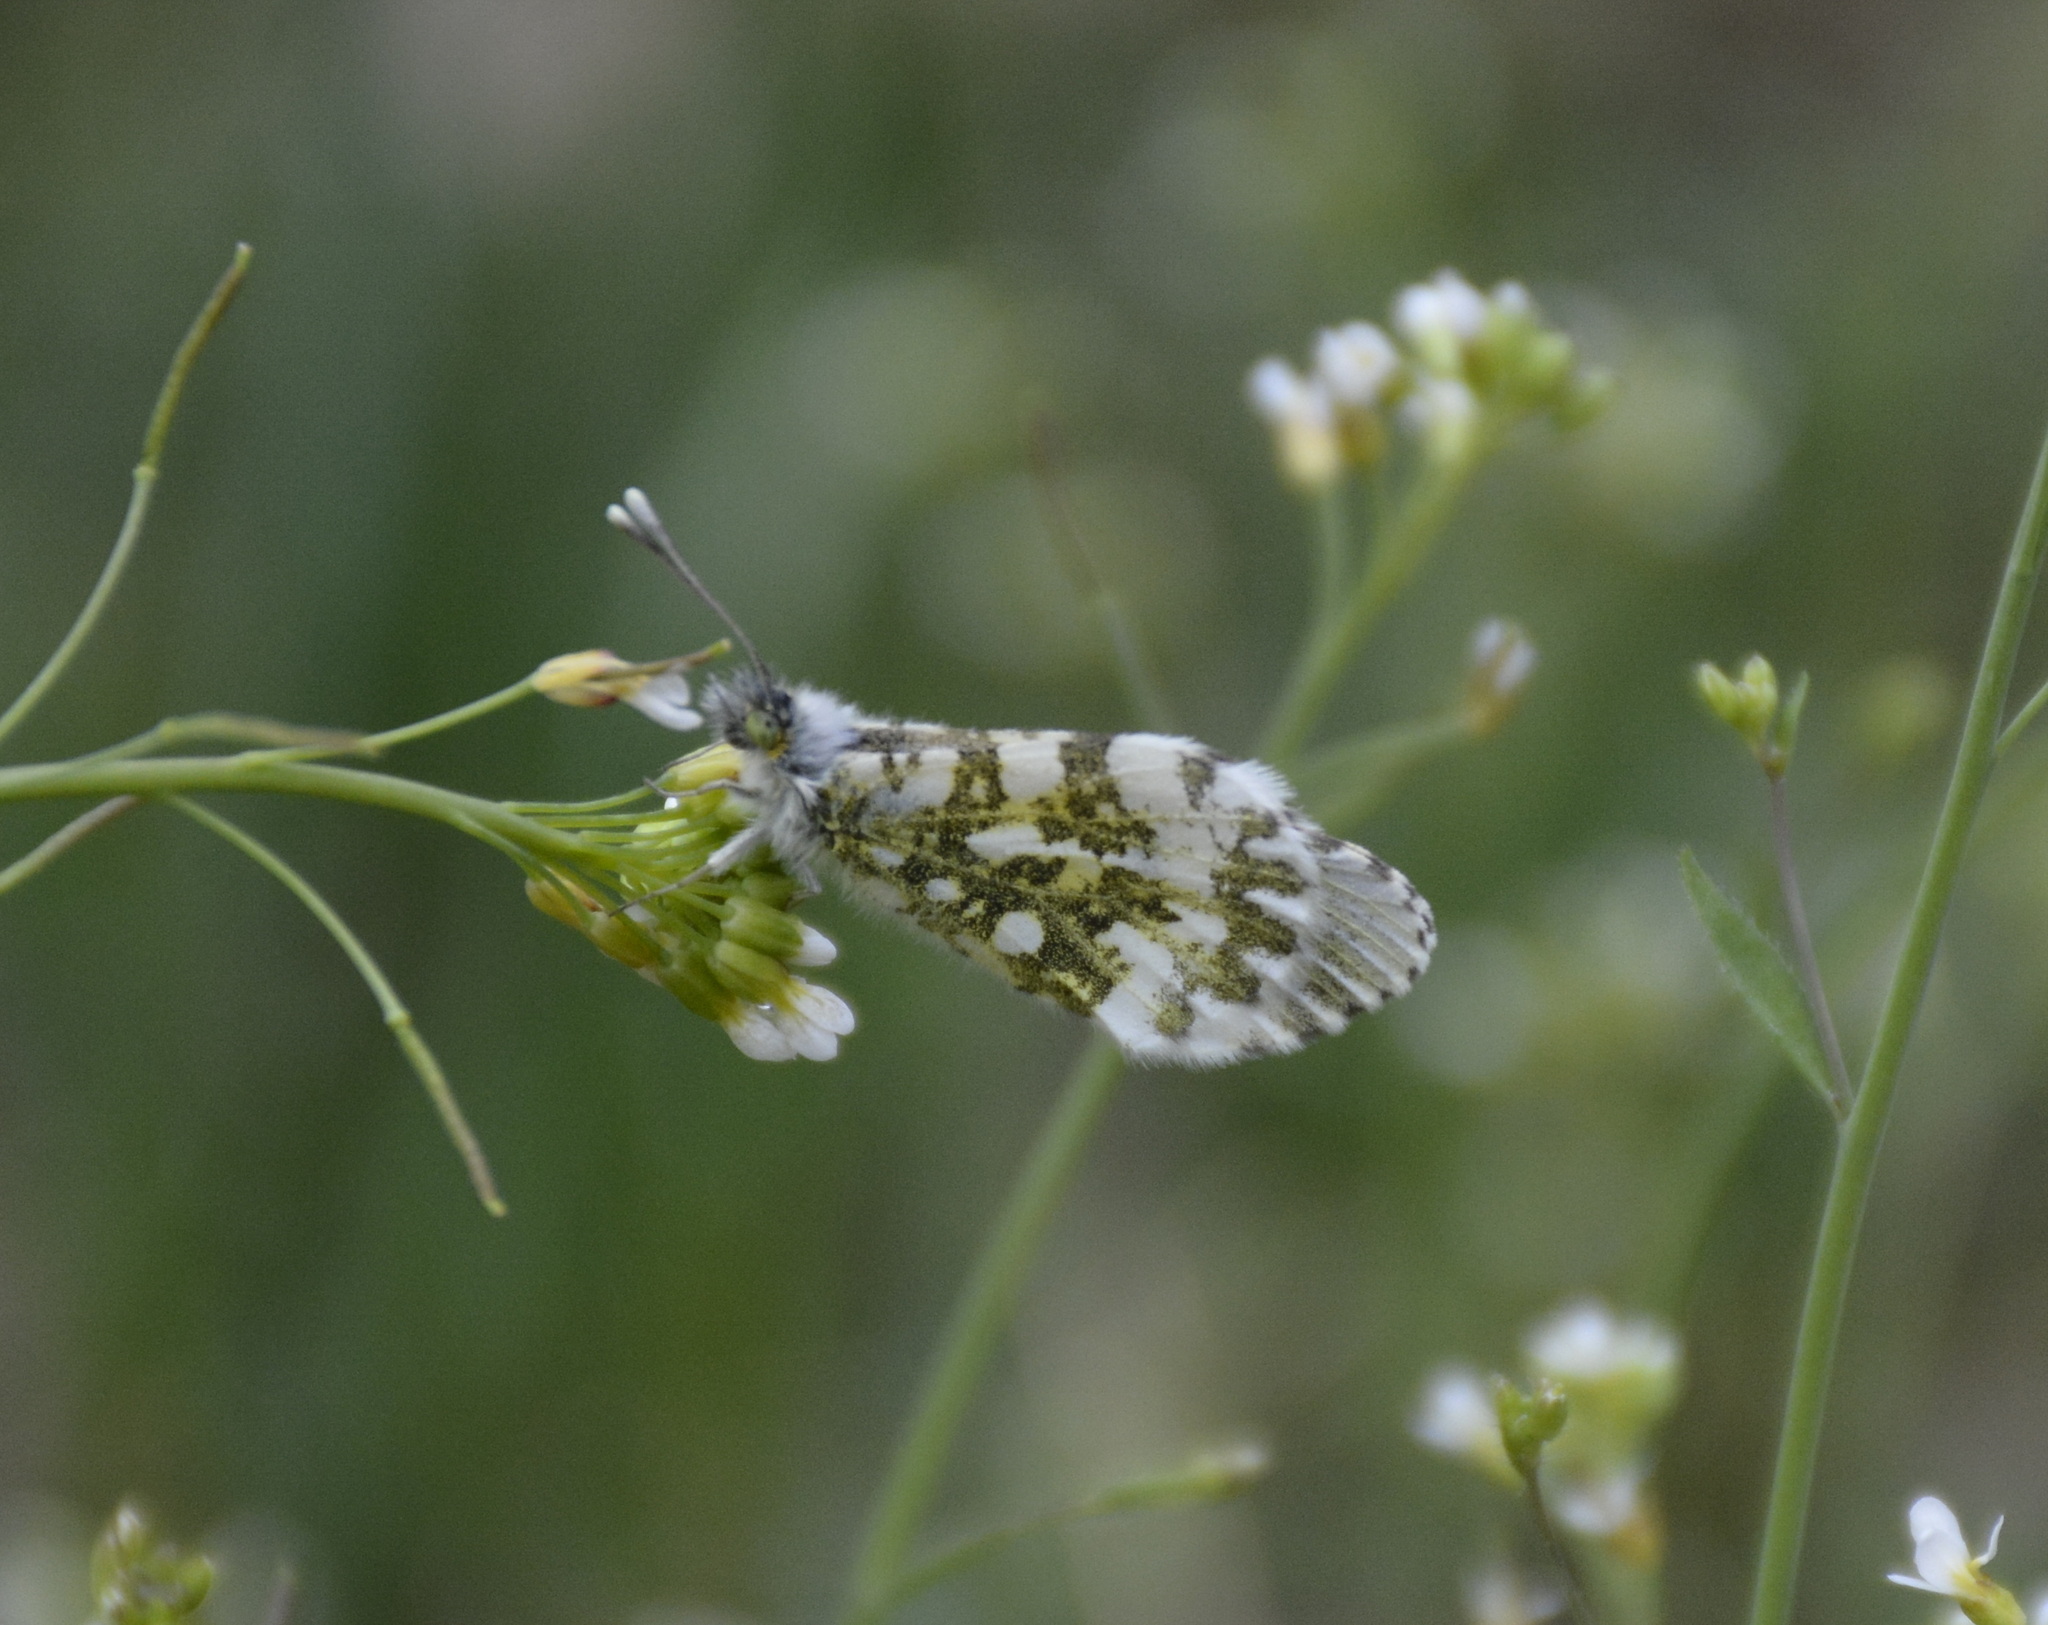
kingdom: Animalia
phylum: Arthropoda
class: Insecta
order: Lepidoptera
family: Pieridae
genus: Anthocharis
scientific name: Anthocharis cardamines
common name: Orange-tip
